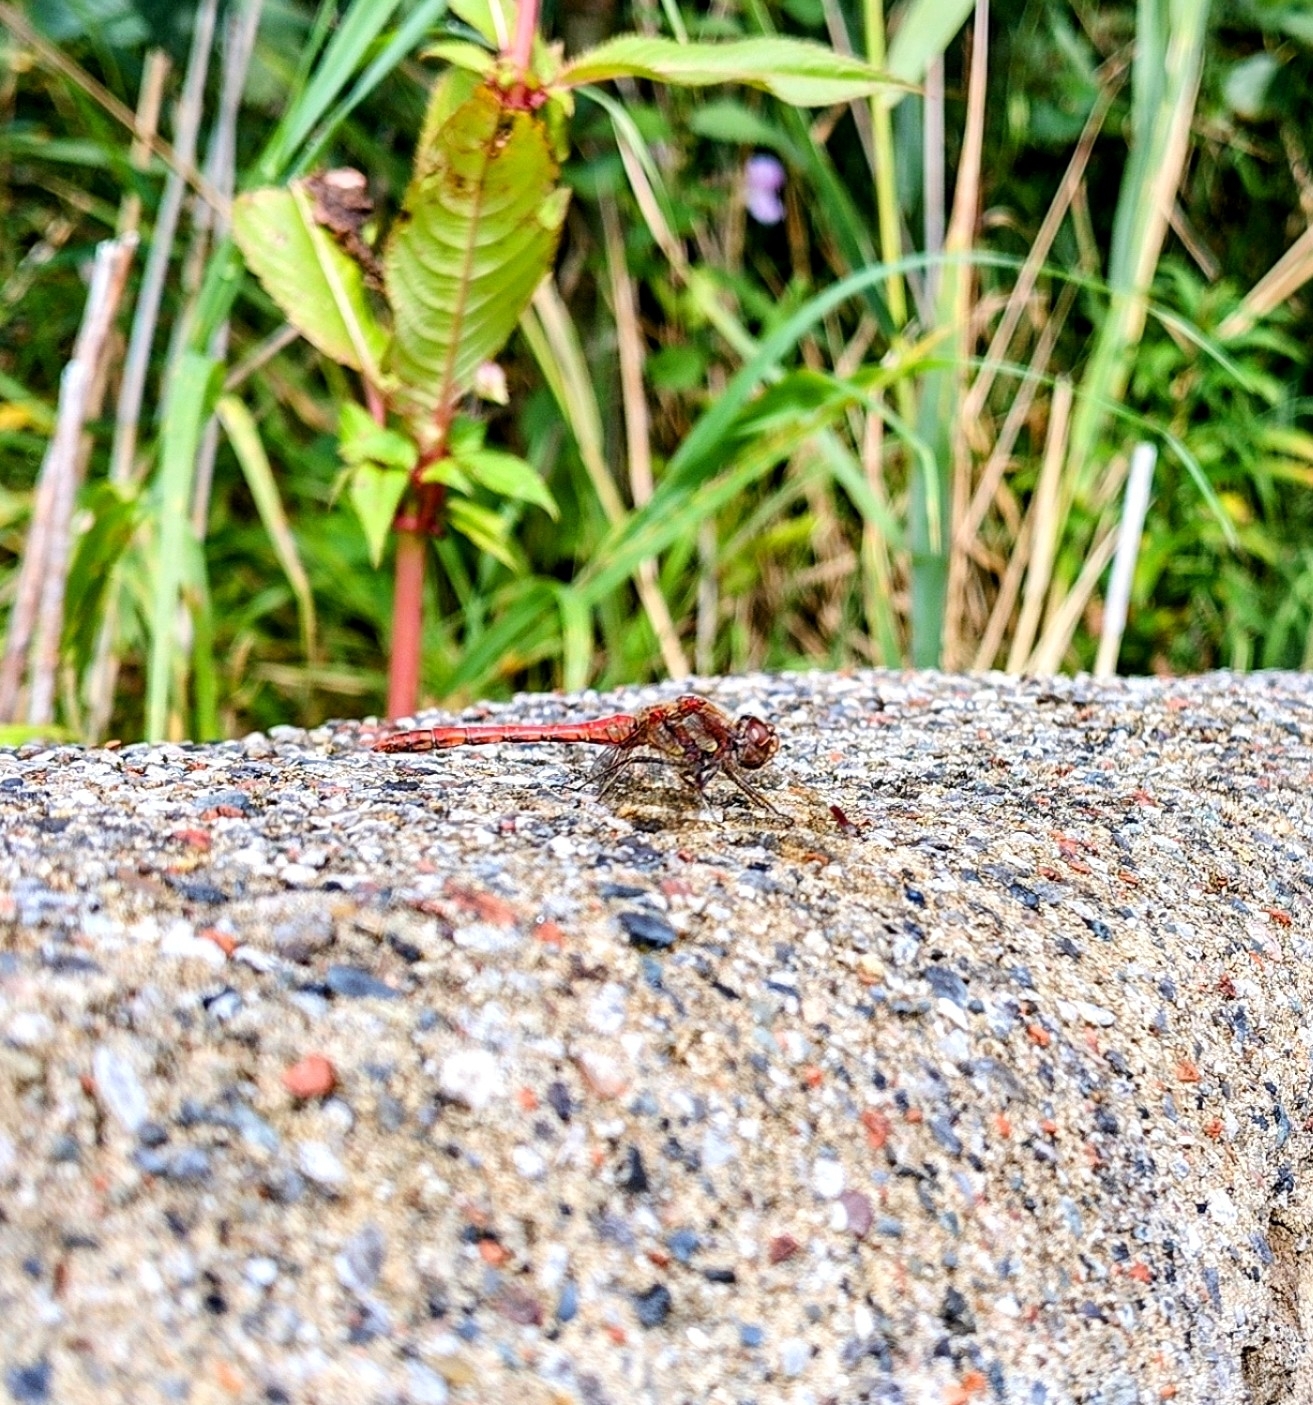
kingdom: Animalia
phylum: Arthropoda
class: Insecta
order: Odonata
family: Libellulidae
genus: Sympetrum
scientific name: Sympetrum striolatum
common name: Common darter
